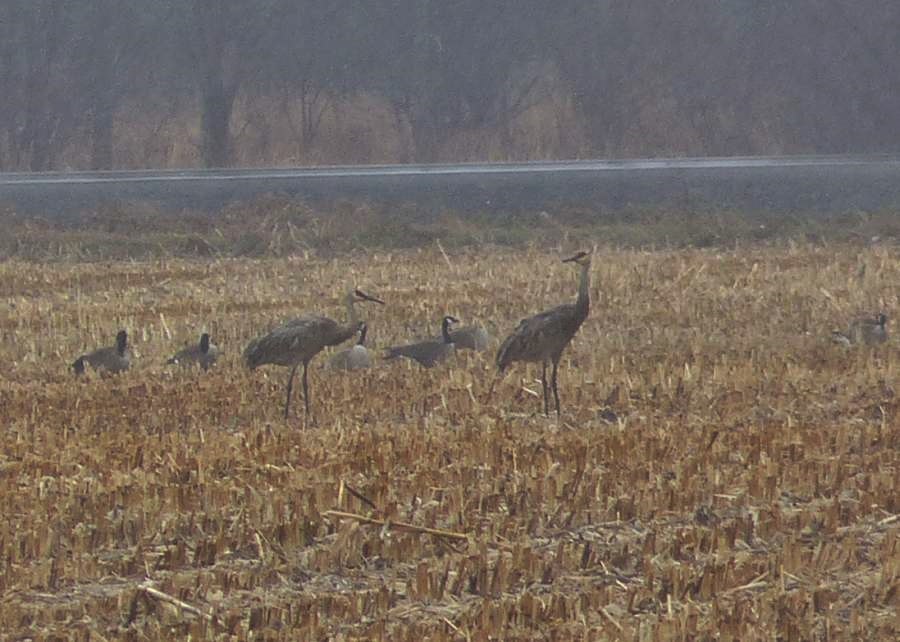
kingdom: Animalia
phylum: Chordata
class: Aves
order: Gruiformes
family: Gruidae
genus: Grus
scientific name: Grus canadensis
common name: Sandhill crane
